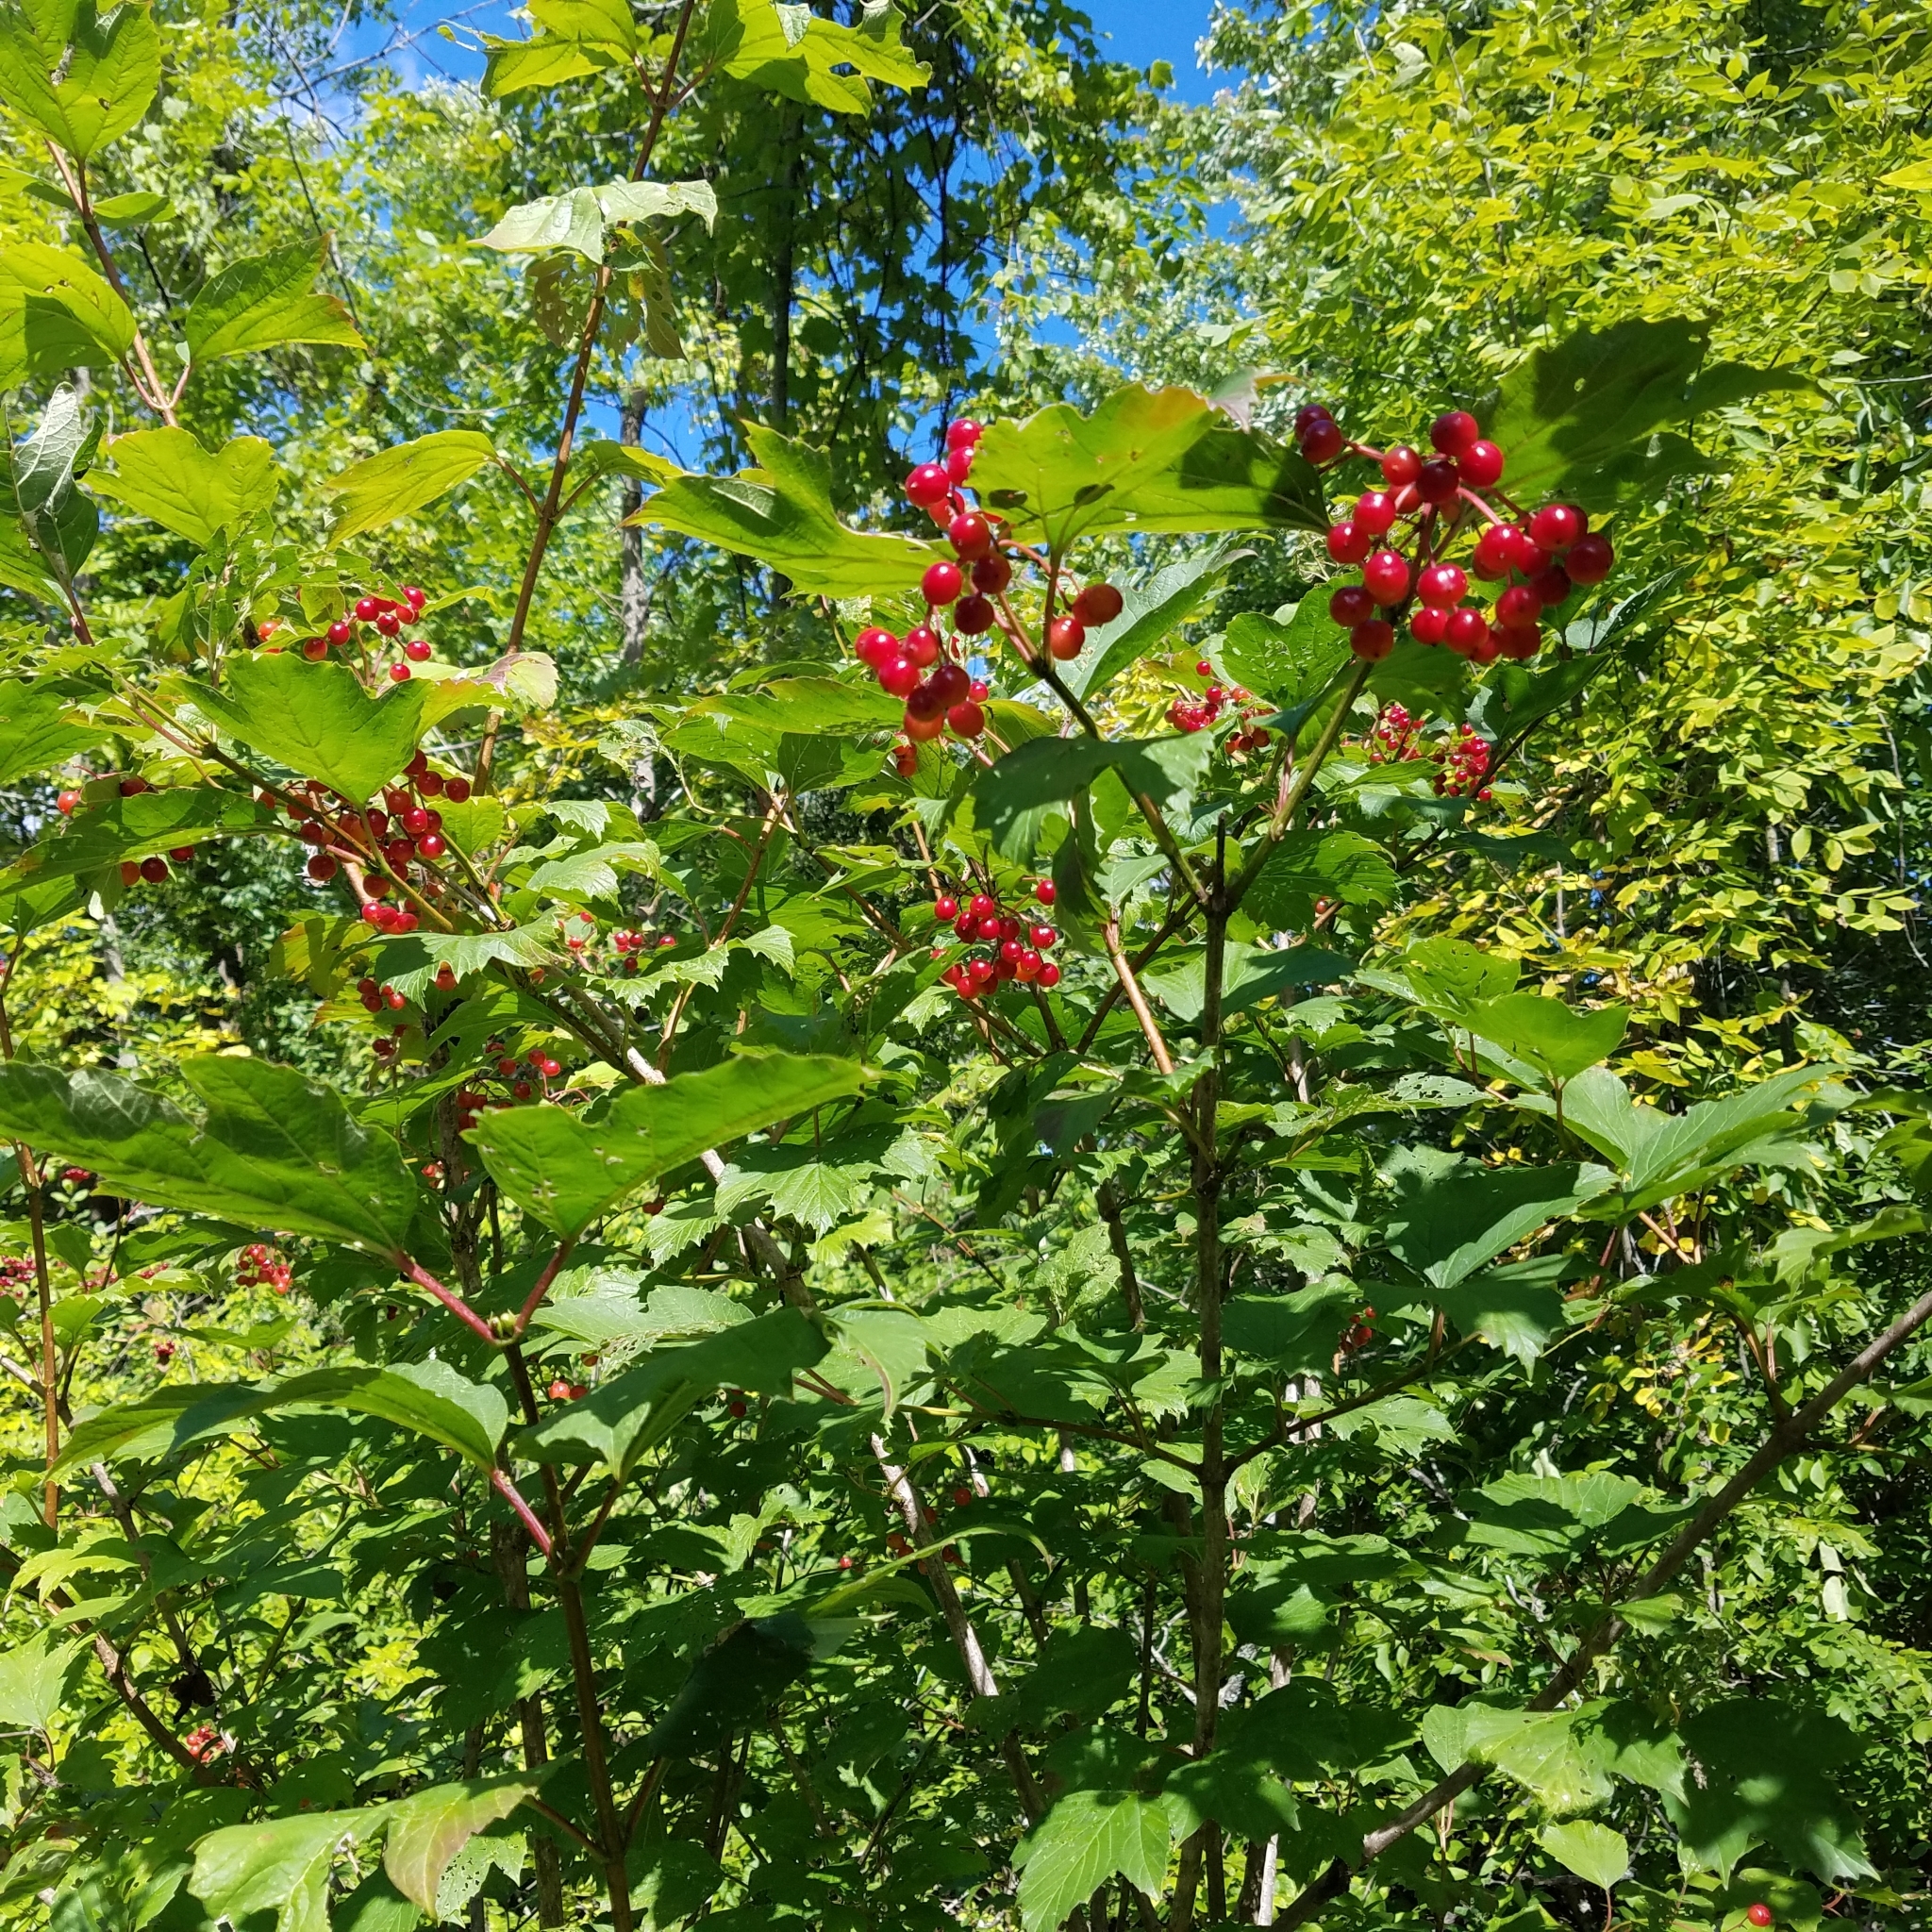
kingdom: Plantae
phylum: Tracheophyta
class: Magnoliopsida
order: Dipsacales
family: Viburnaceae
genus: Viburnum
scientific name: Viburnum opulus
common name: Guelder-rose
